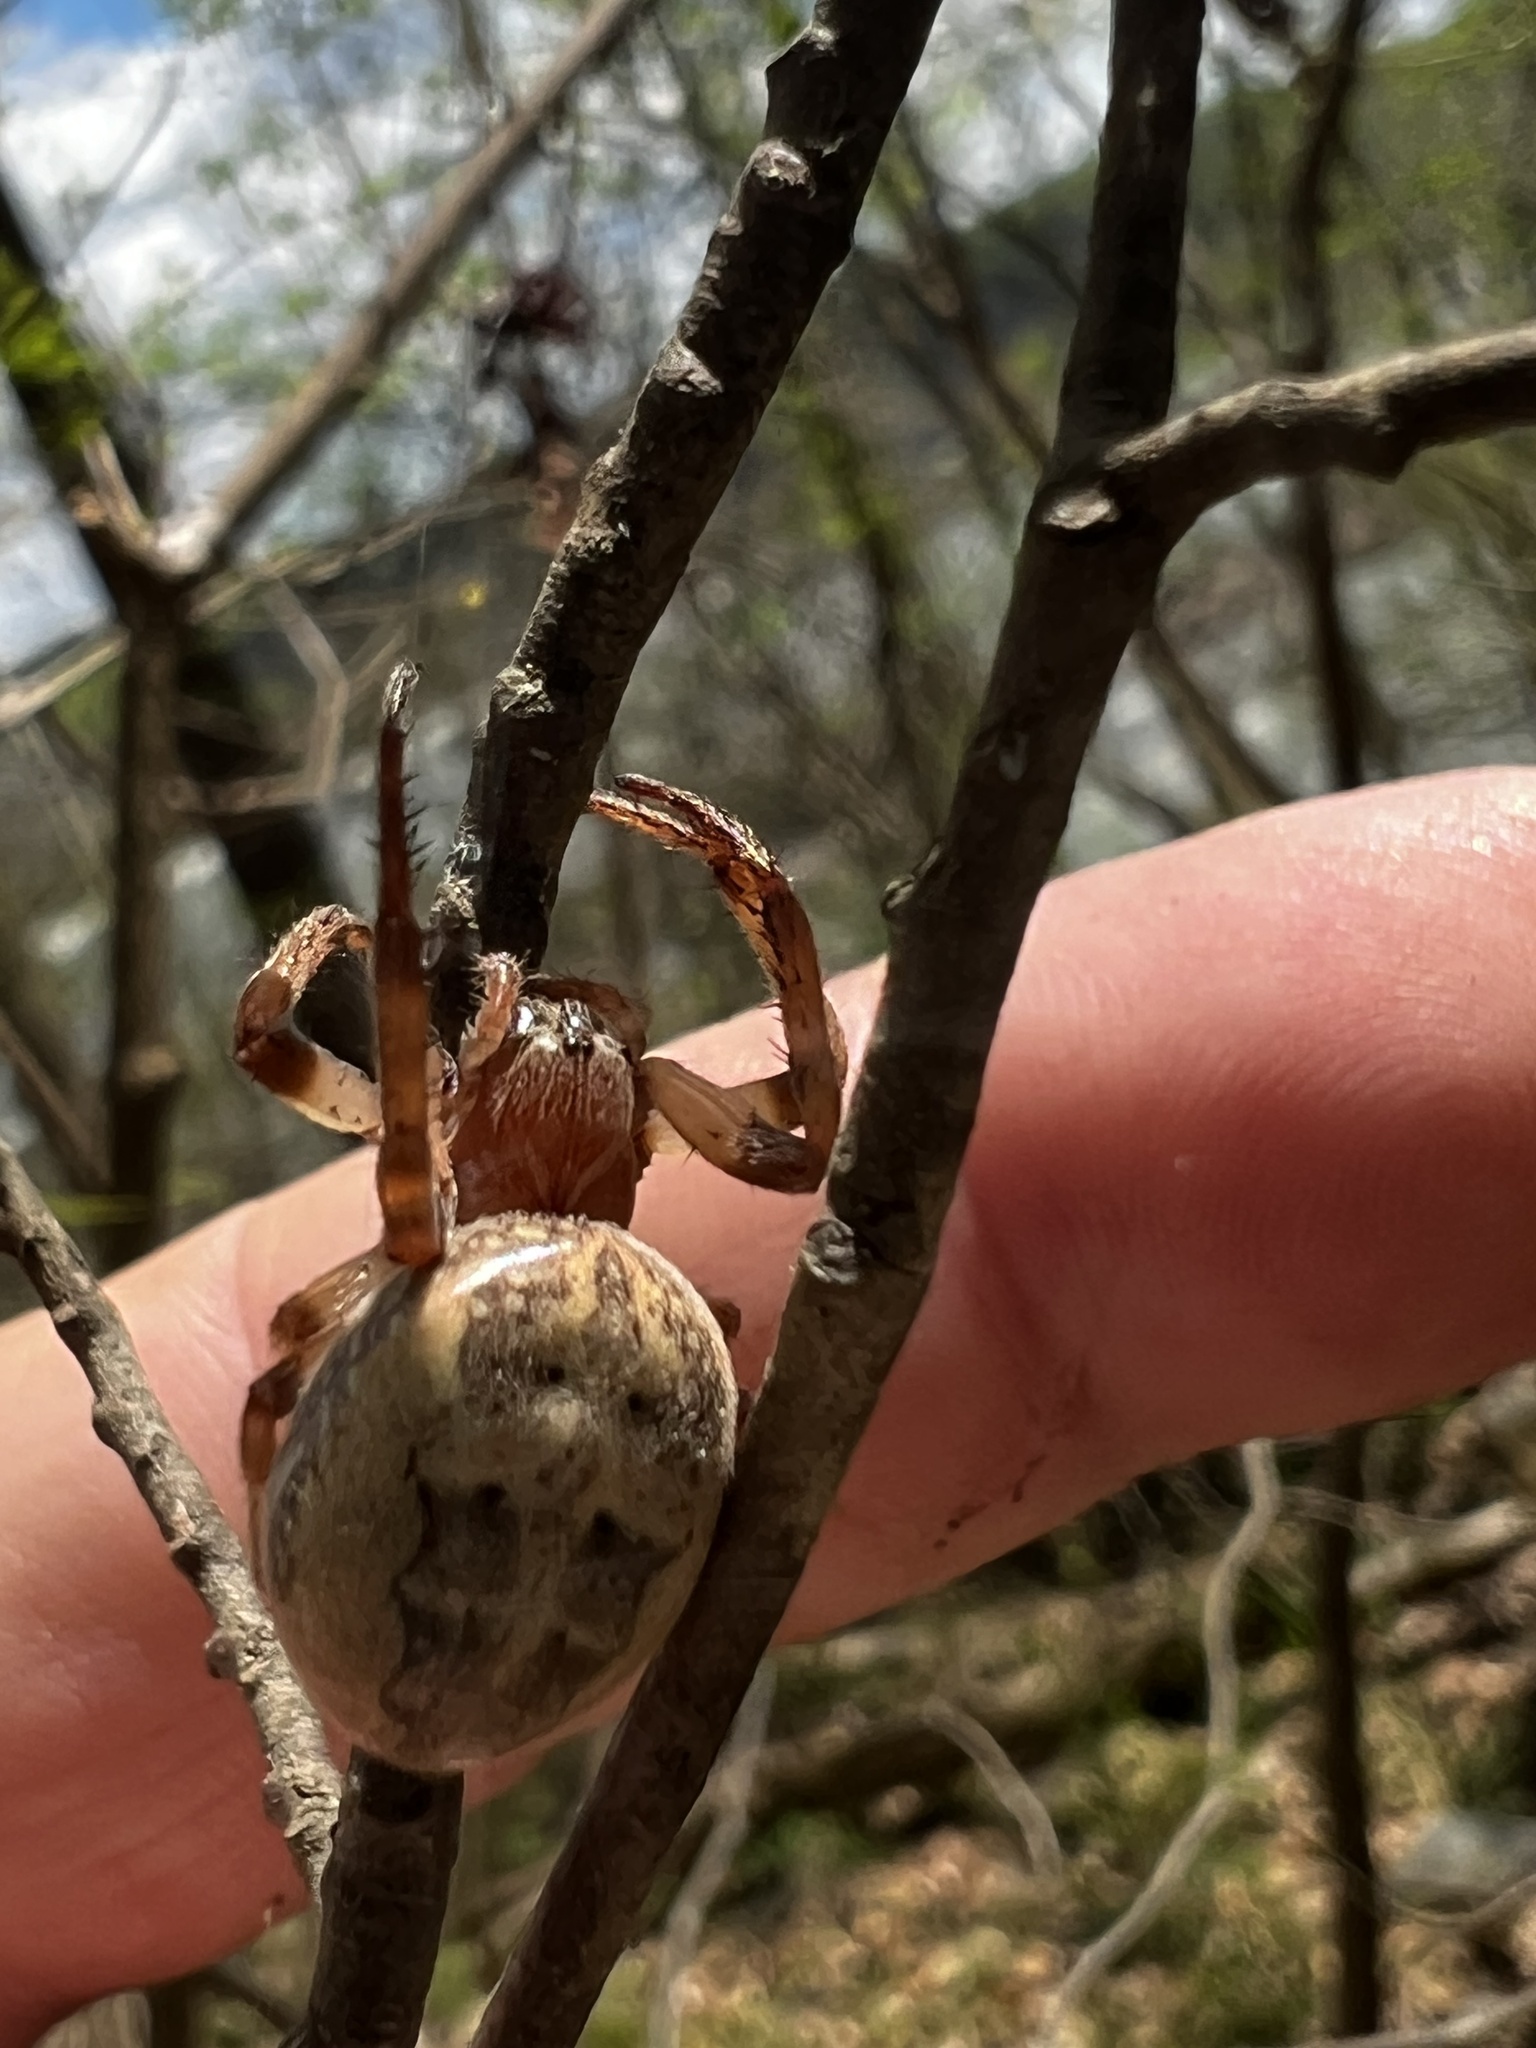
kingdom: Animalia
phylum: Arthropoda
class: Arachnida
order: Araneae
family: Araneidae
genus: Larinioides
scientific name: Larinioides cornutus
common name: Furrow orbweaver
